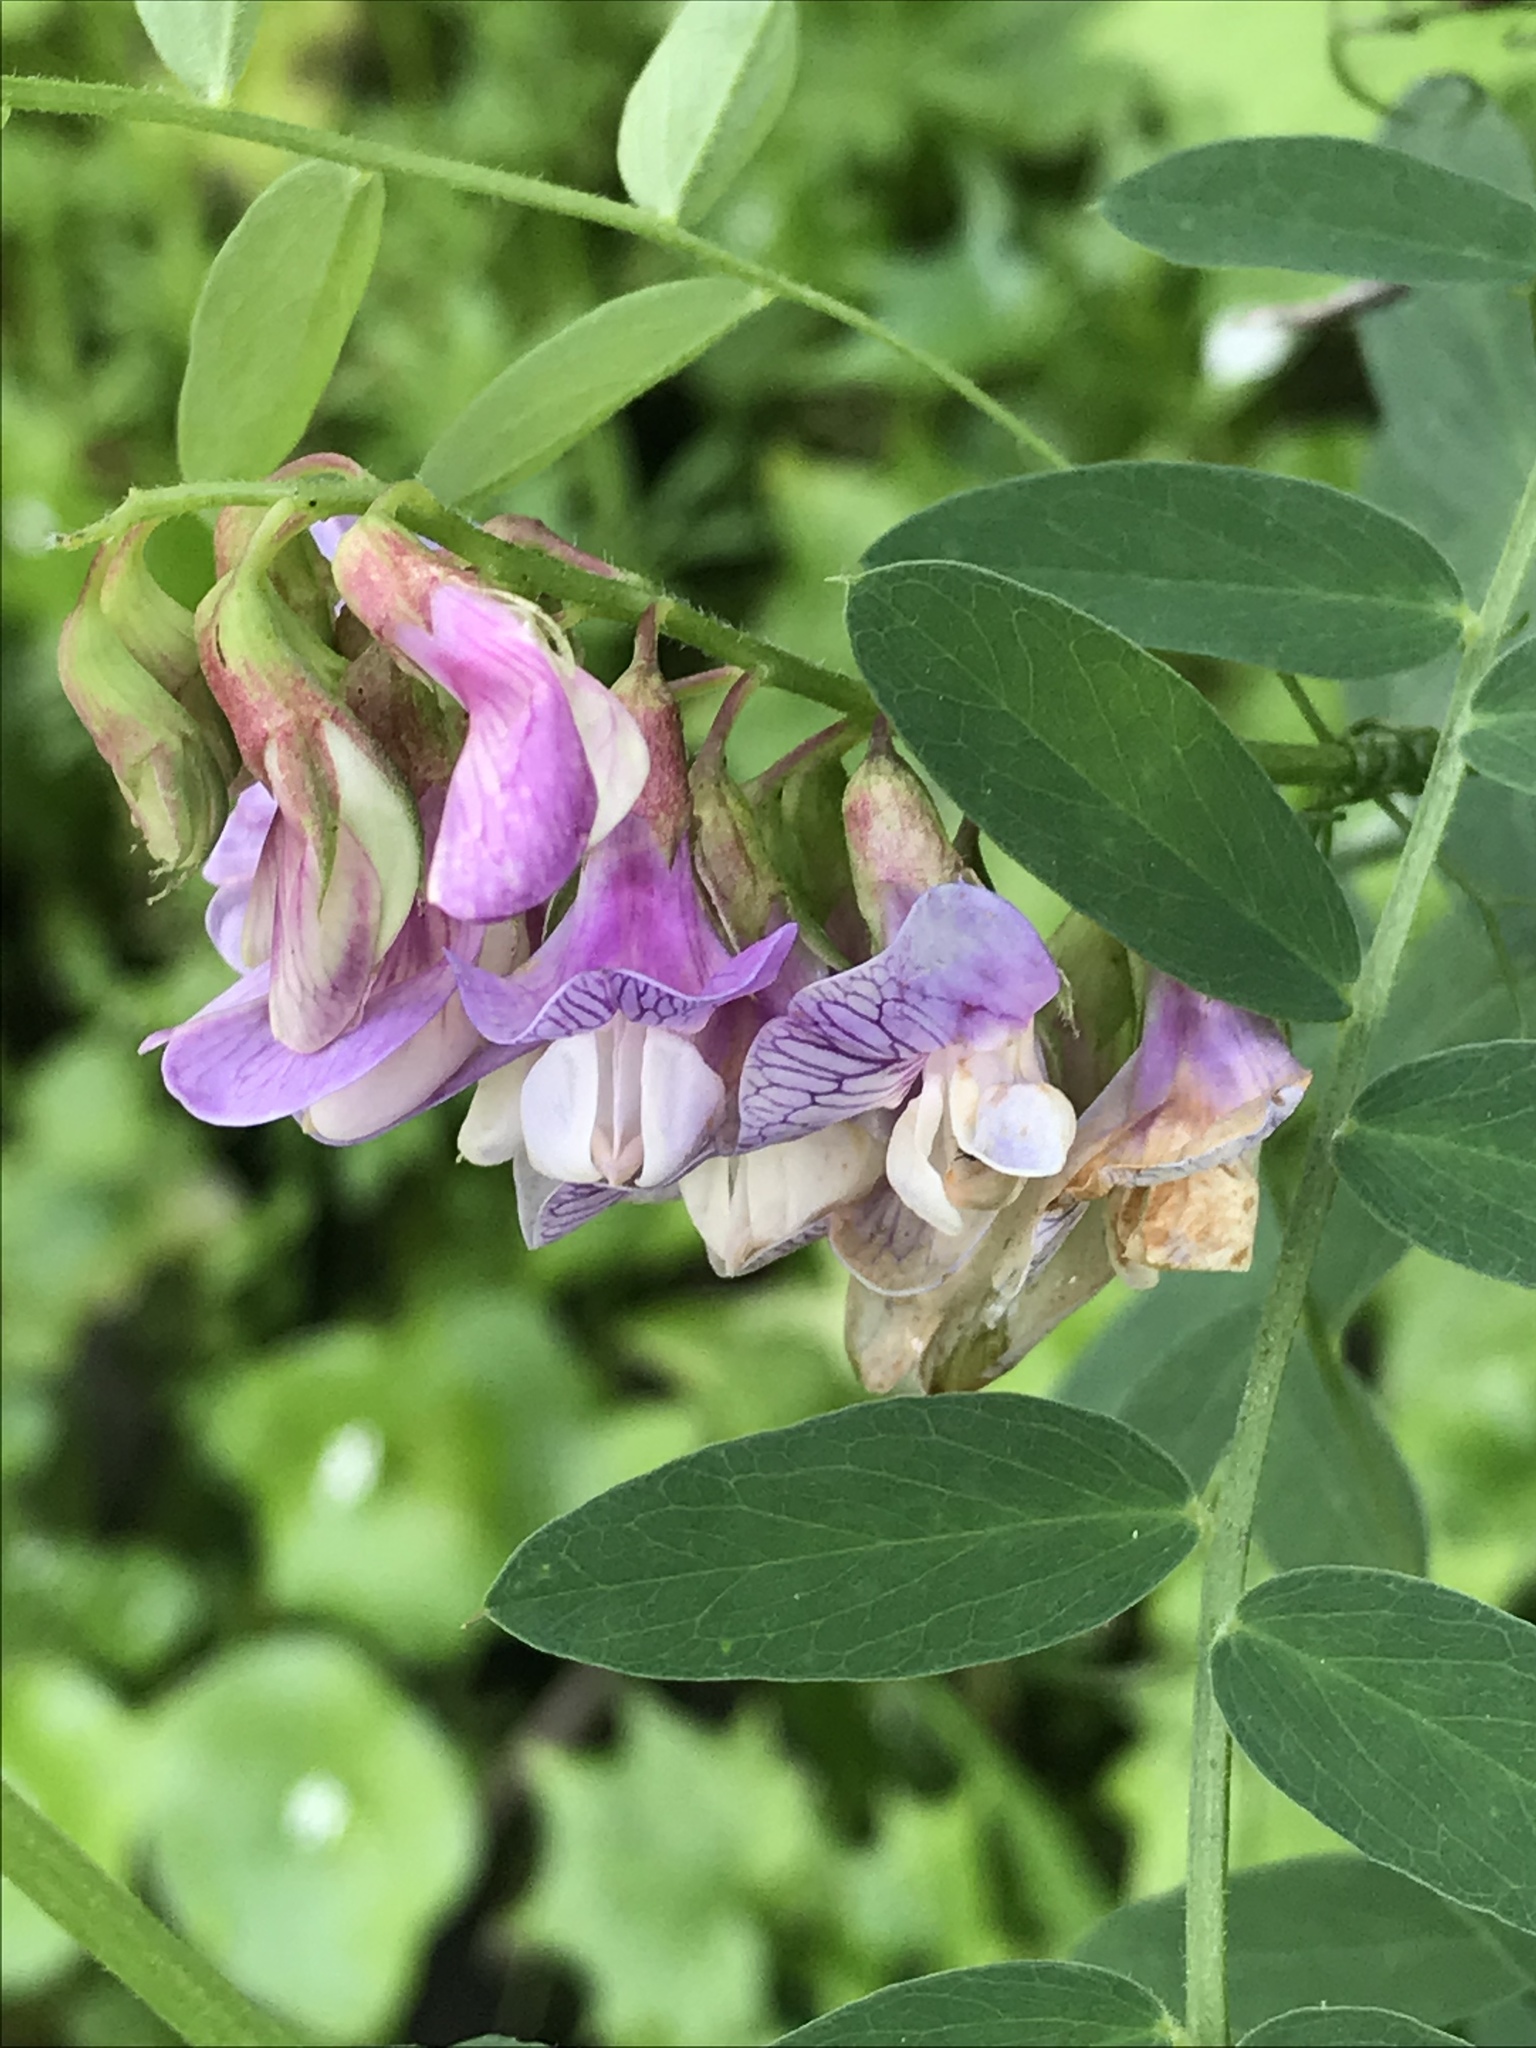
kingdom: Plantae
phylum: Tracheophyta
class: Magnoliopsida
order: Fabales
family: Fabaceae
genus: Lathyrus
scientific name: Lathyrus vestitus
